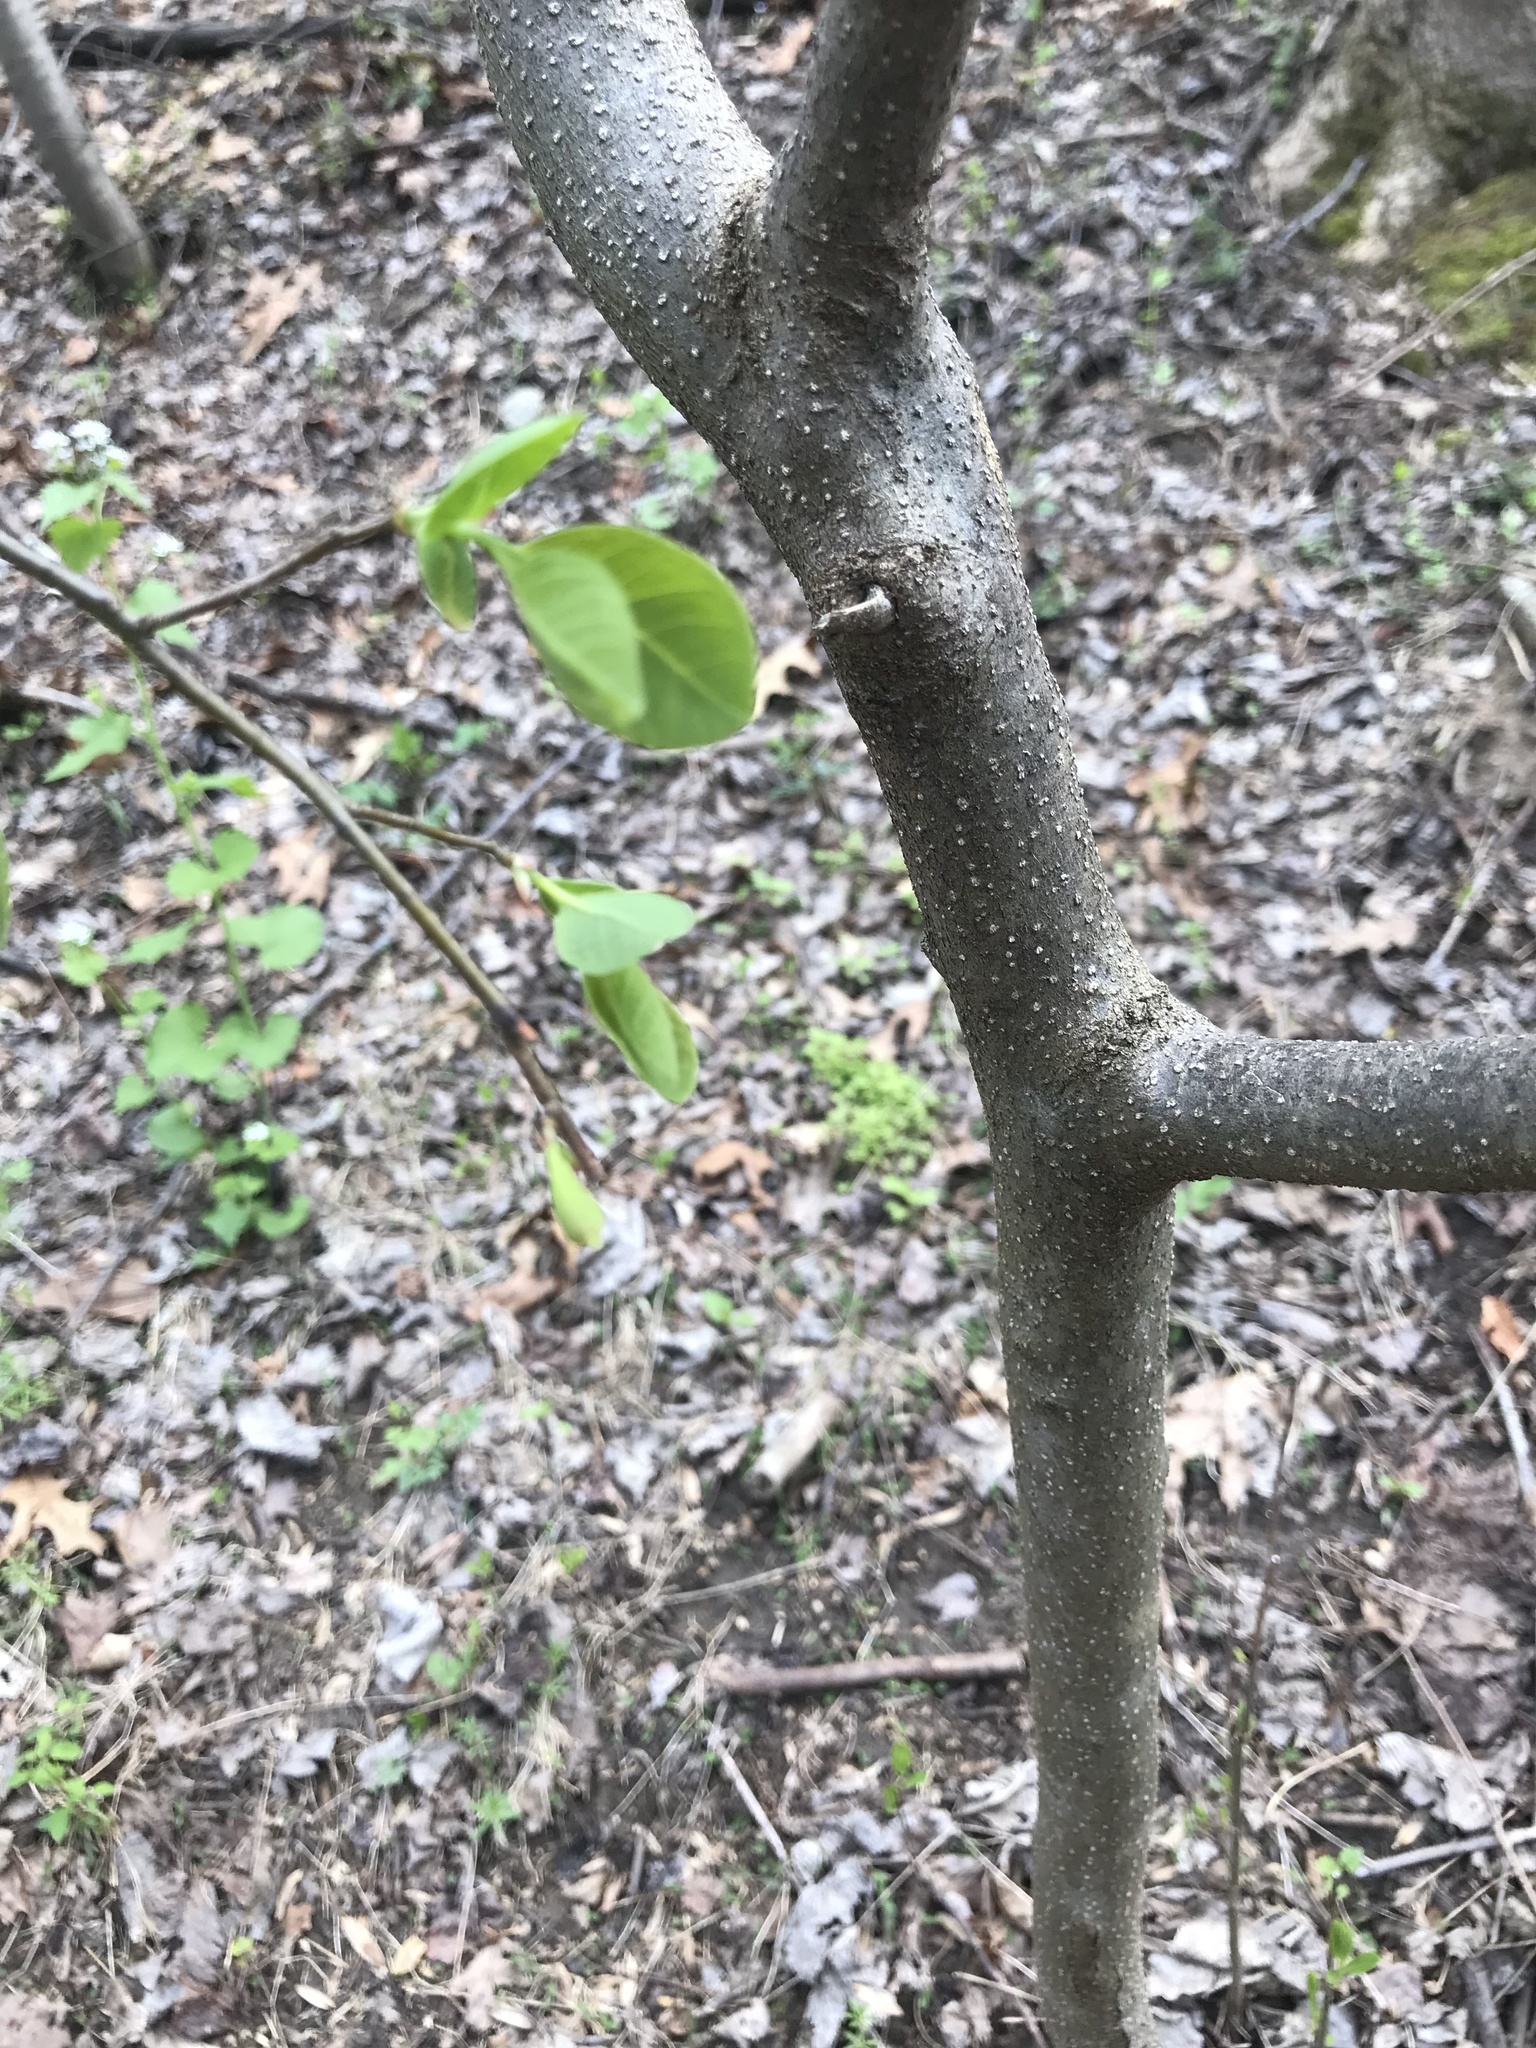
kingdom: Plantae
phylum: Tracheophyta
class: Magnoliopsida
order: Laurales
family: Lauraceae
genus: Lindera
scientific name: Lindera benzoin
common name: Spicebush
